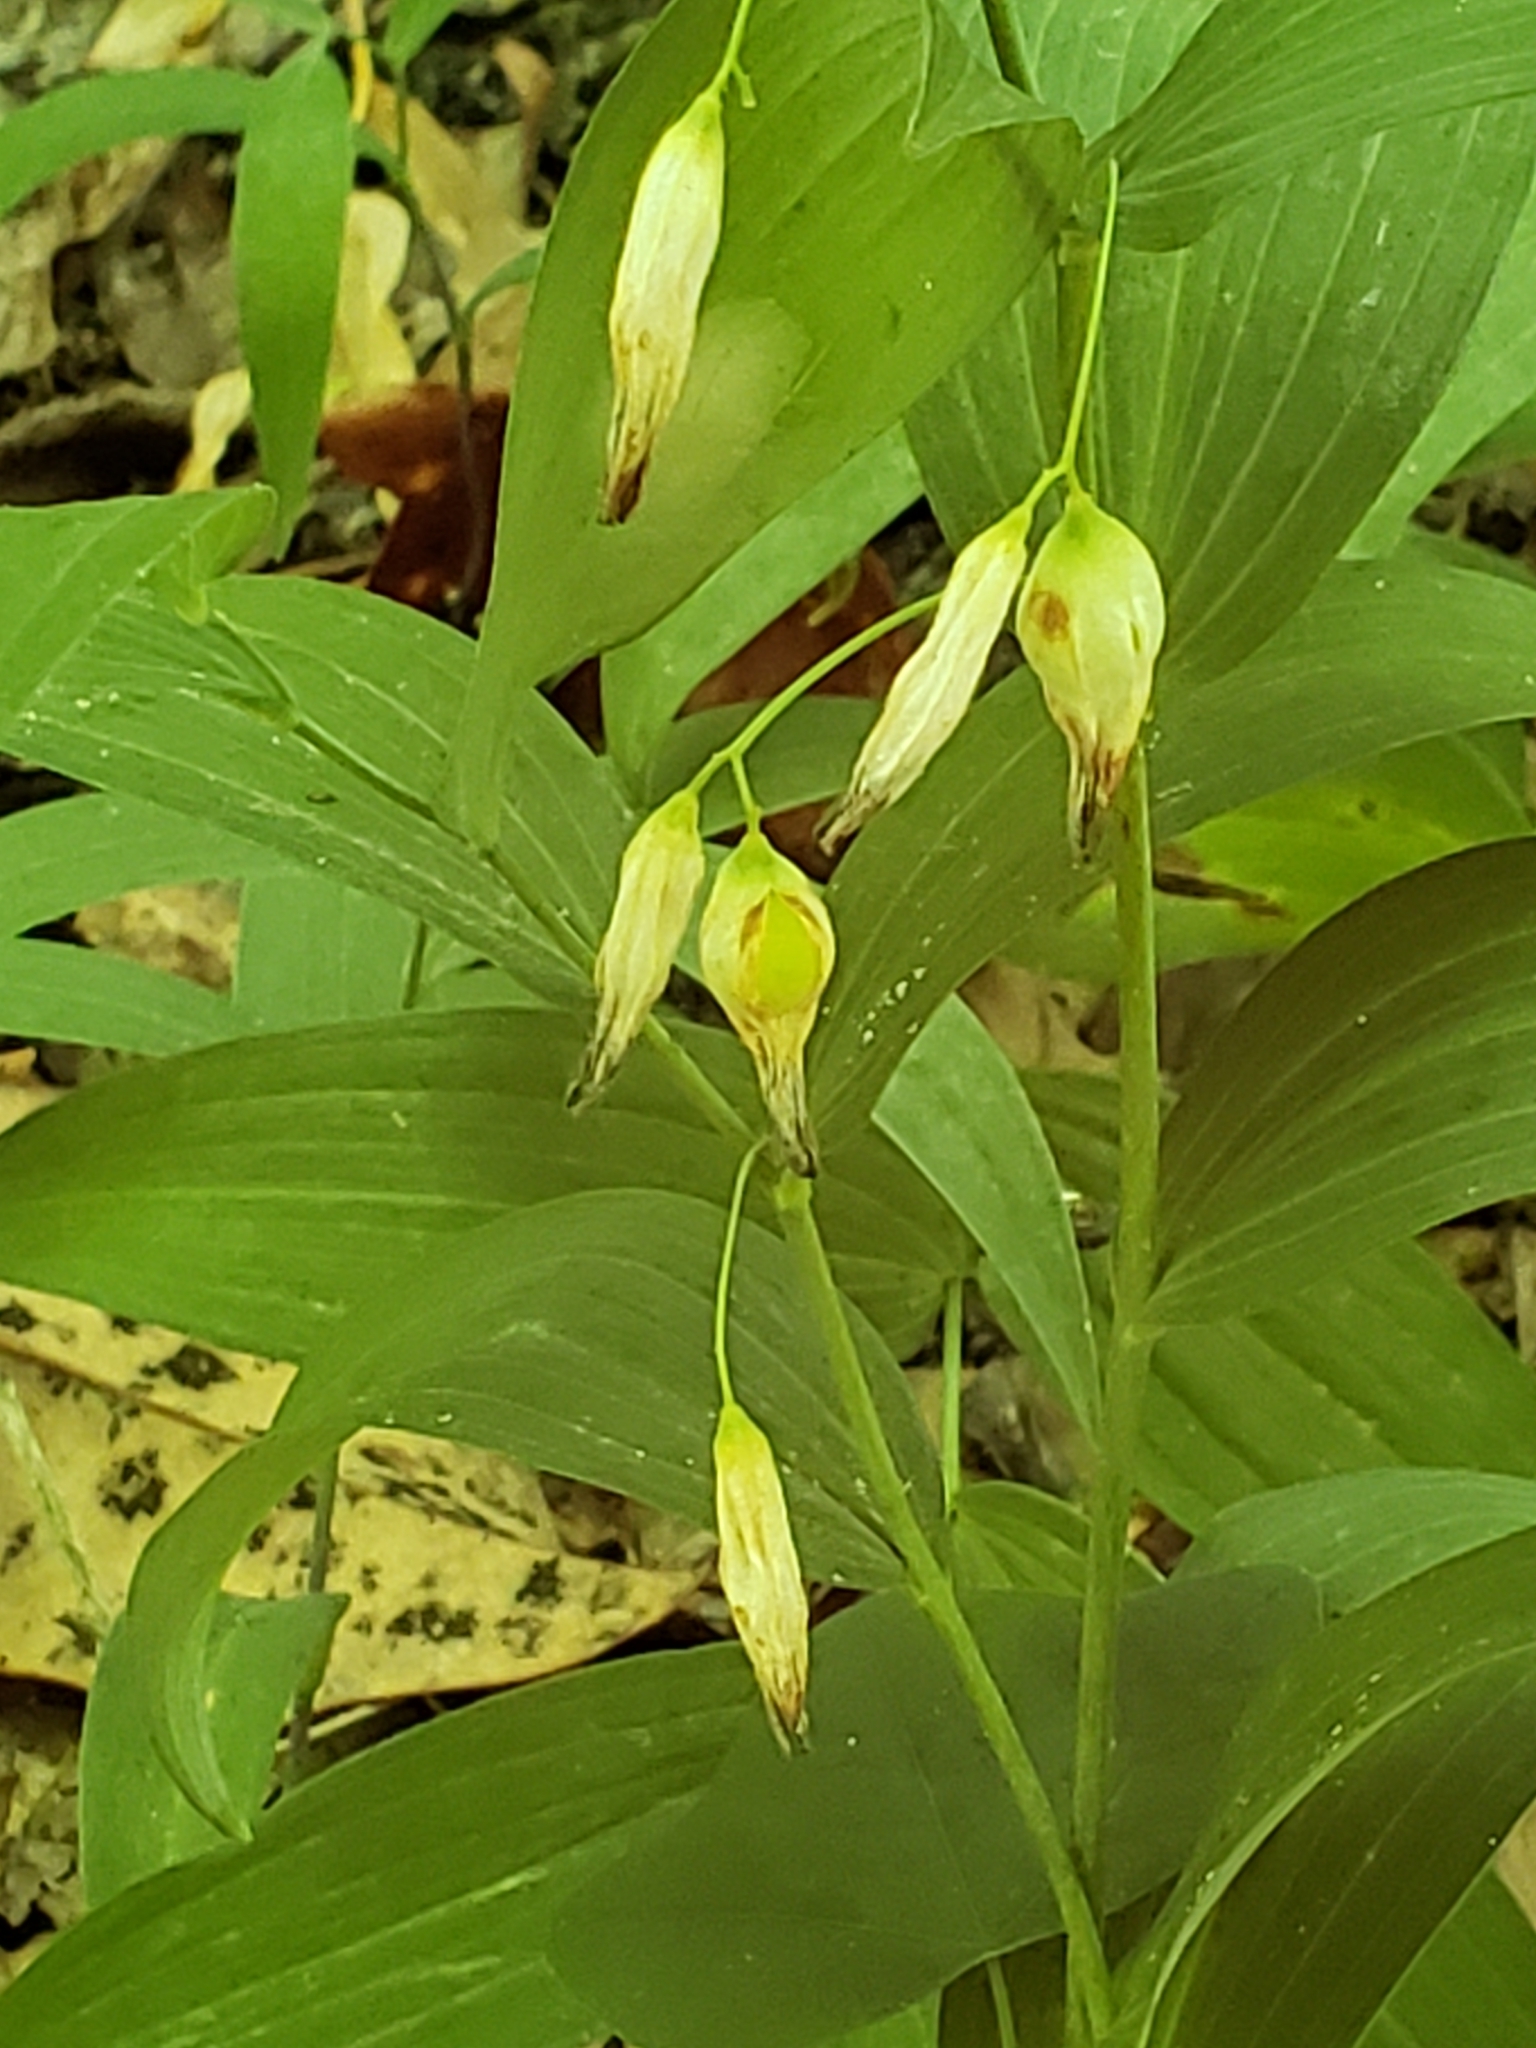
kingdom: Plantae
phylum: Tracheophyta
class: Liliopsida
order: Asparagales
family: Asparagaceae
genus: Polygonatum
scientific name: Polygonatum biflorum
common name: American solomon's-seal
